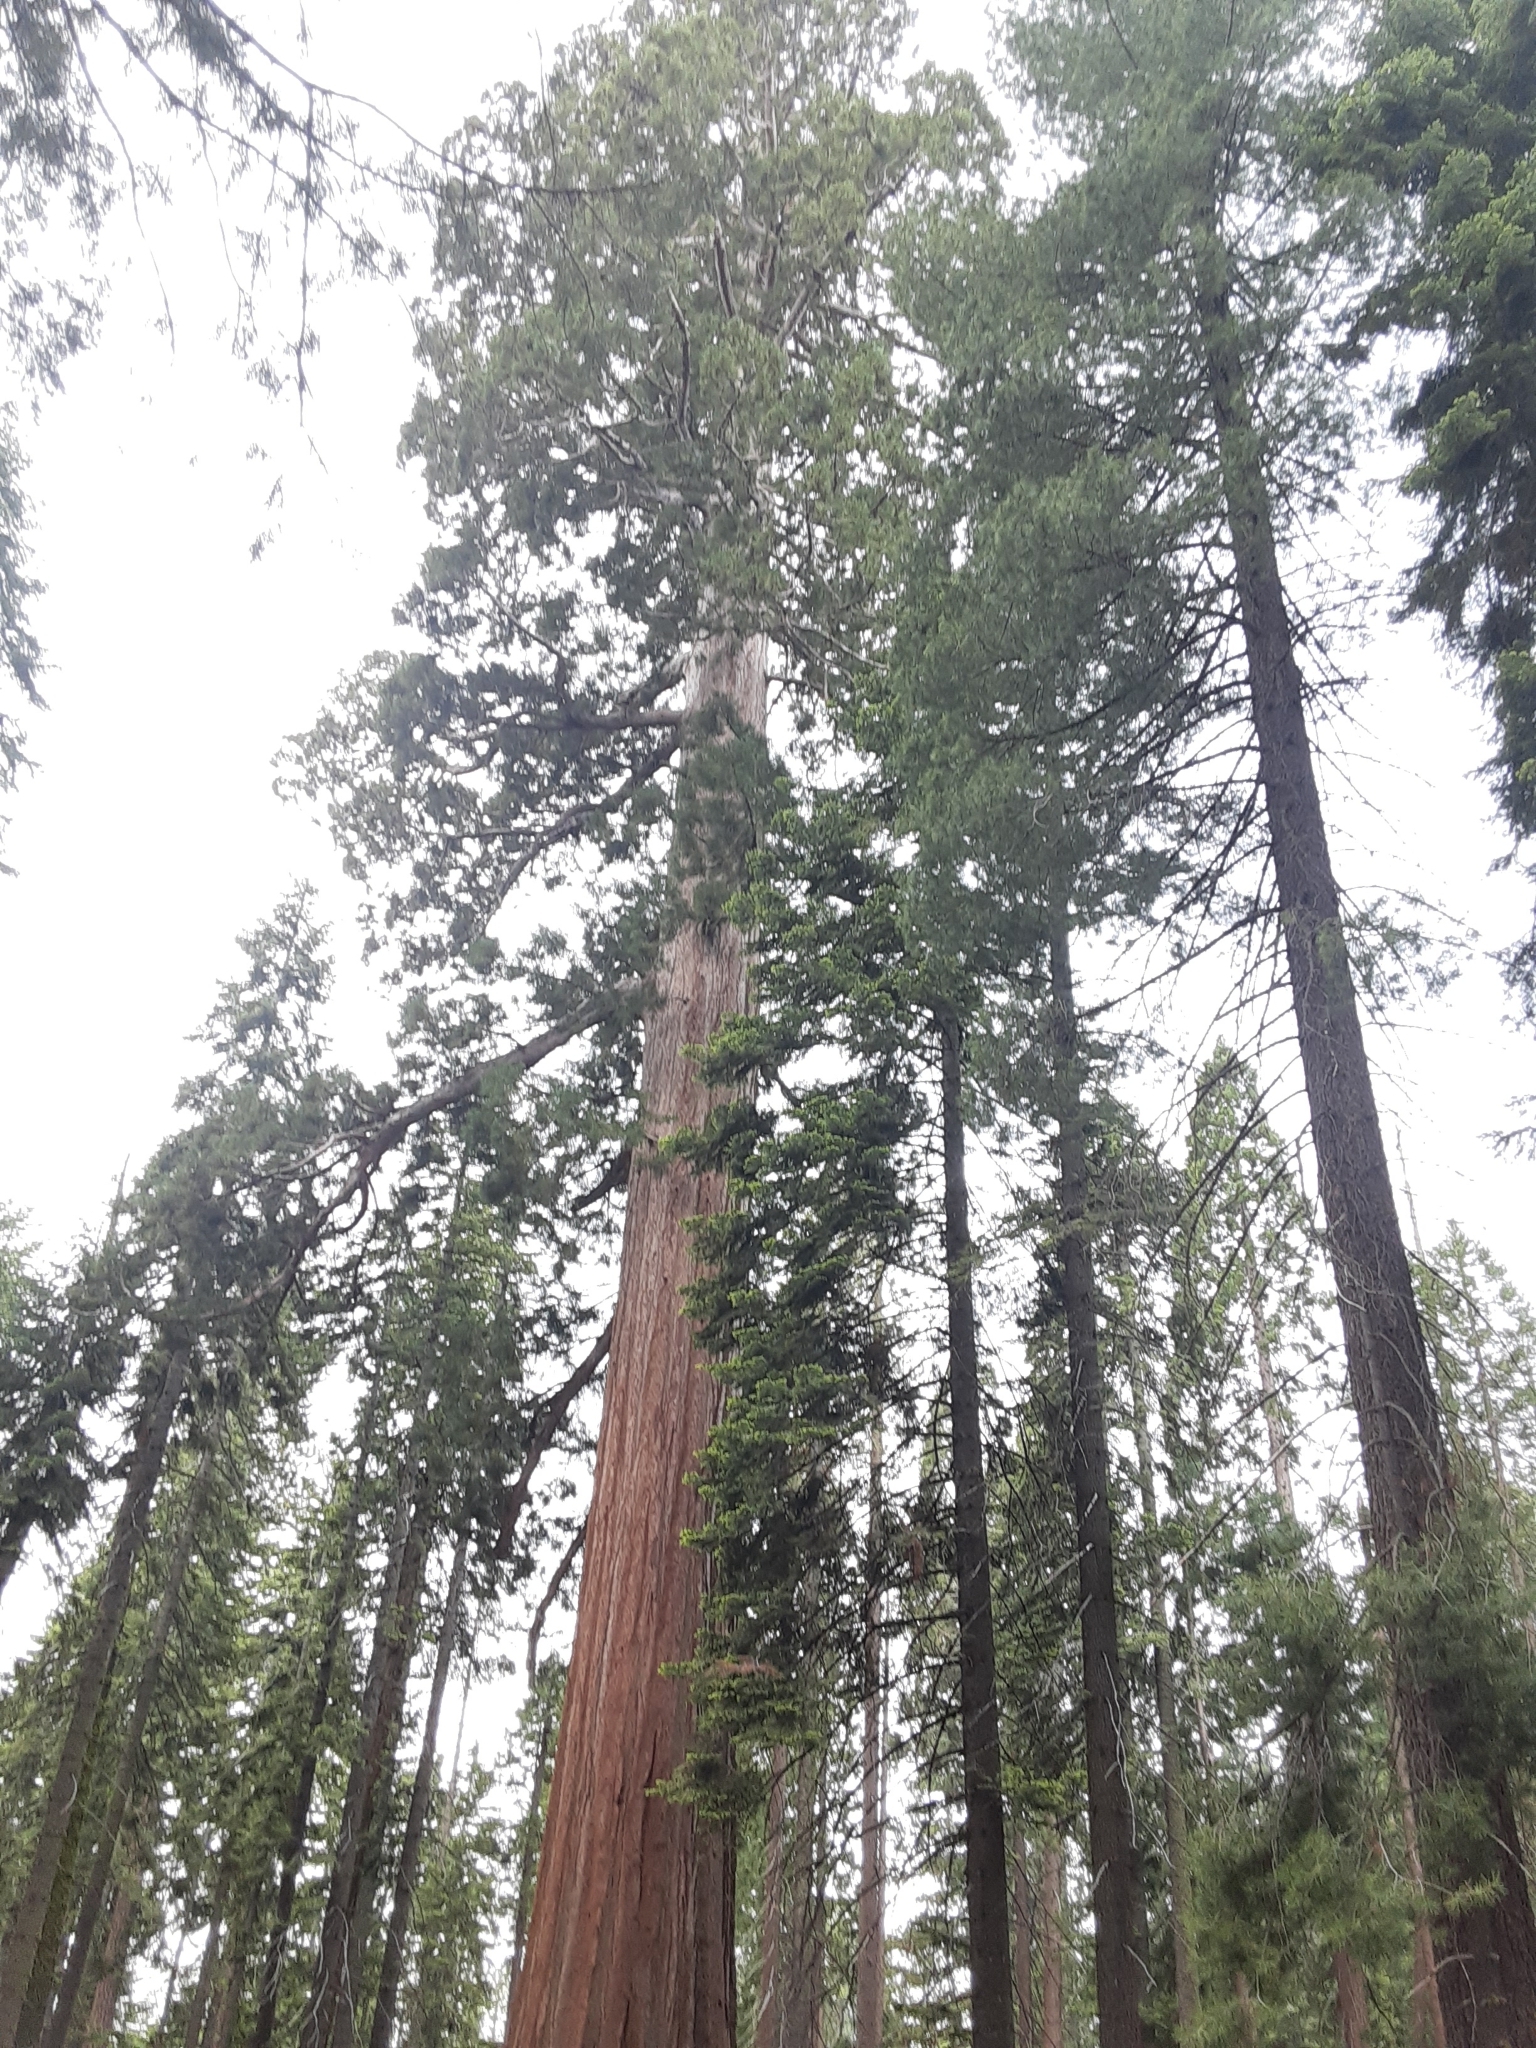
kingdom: Plantae
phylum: Tracheophyta
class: Pinopsida
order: Pinales
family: Cupressaceae
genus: Sequoiadendron
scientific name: Sequoiadendron giganteum
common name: Wellingtonia
